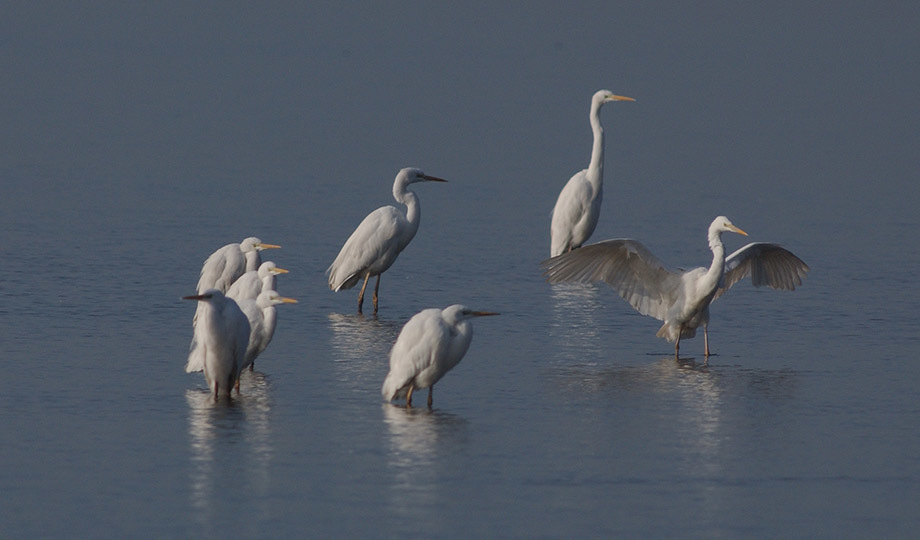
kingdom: Animalia
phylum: Chordata
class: Aves
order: Pelecaniformes
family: Ardeidae
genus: Ardea
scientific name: Ardea alba
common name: Great egret
